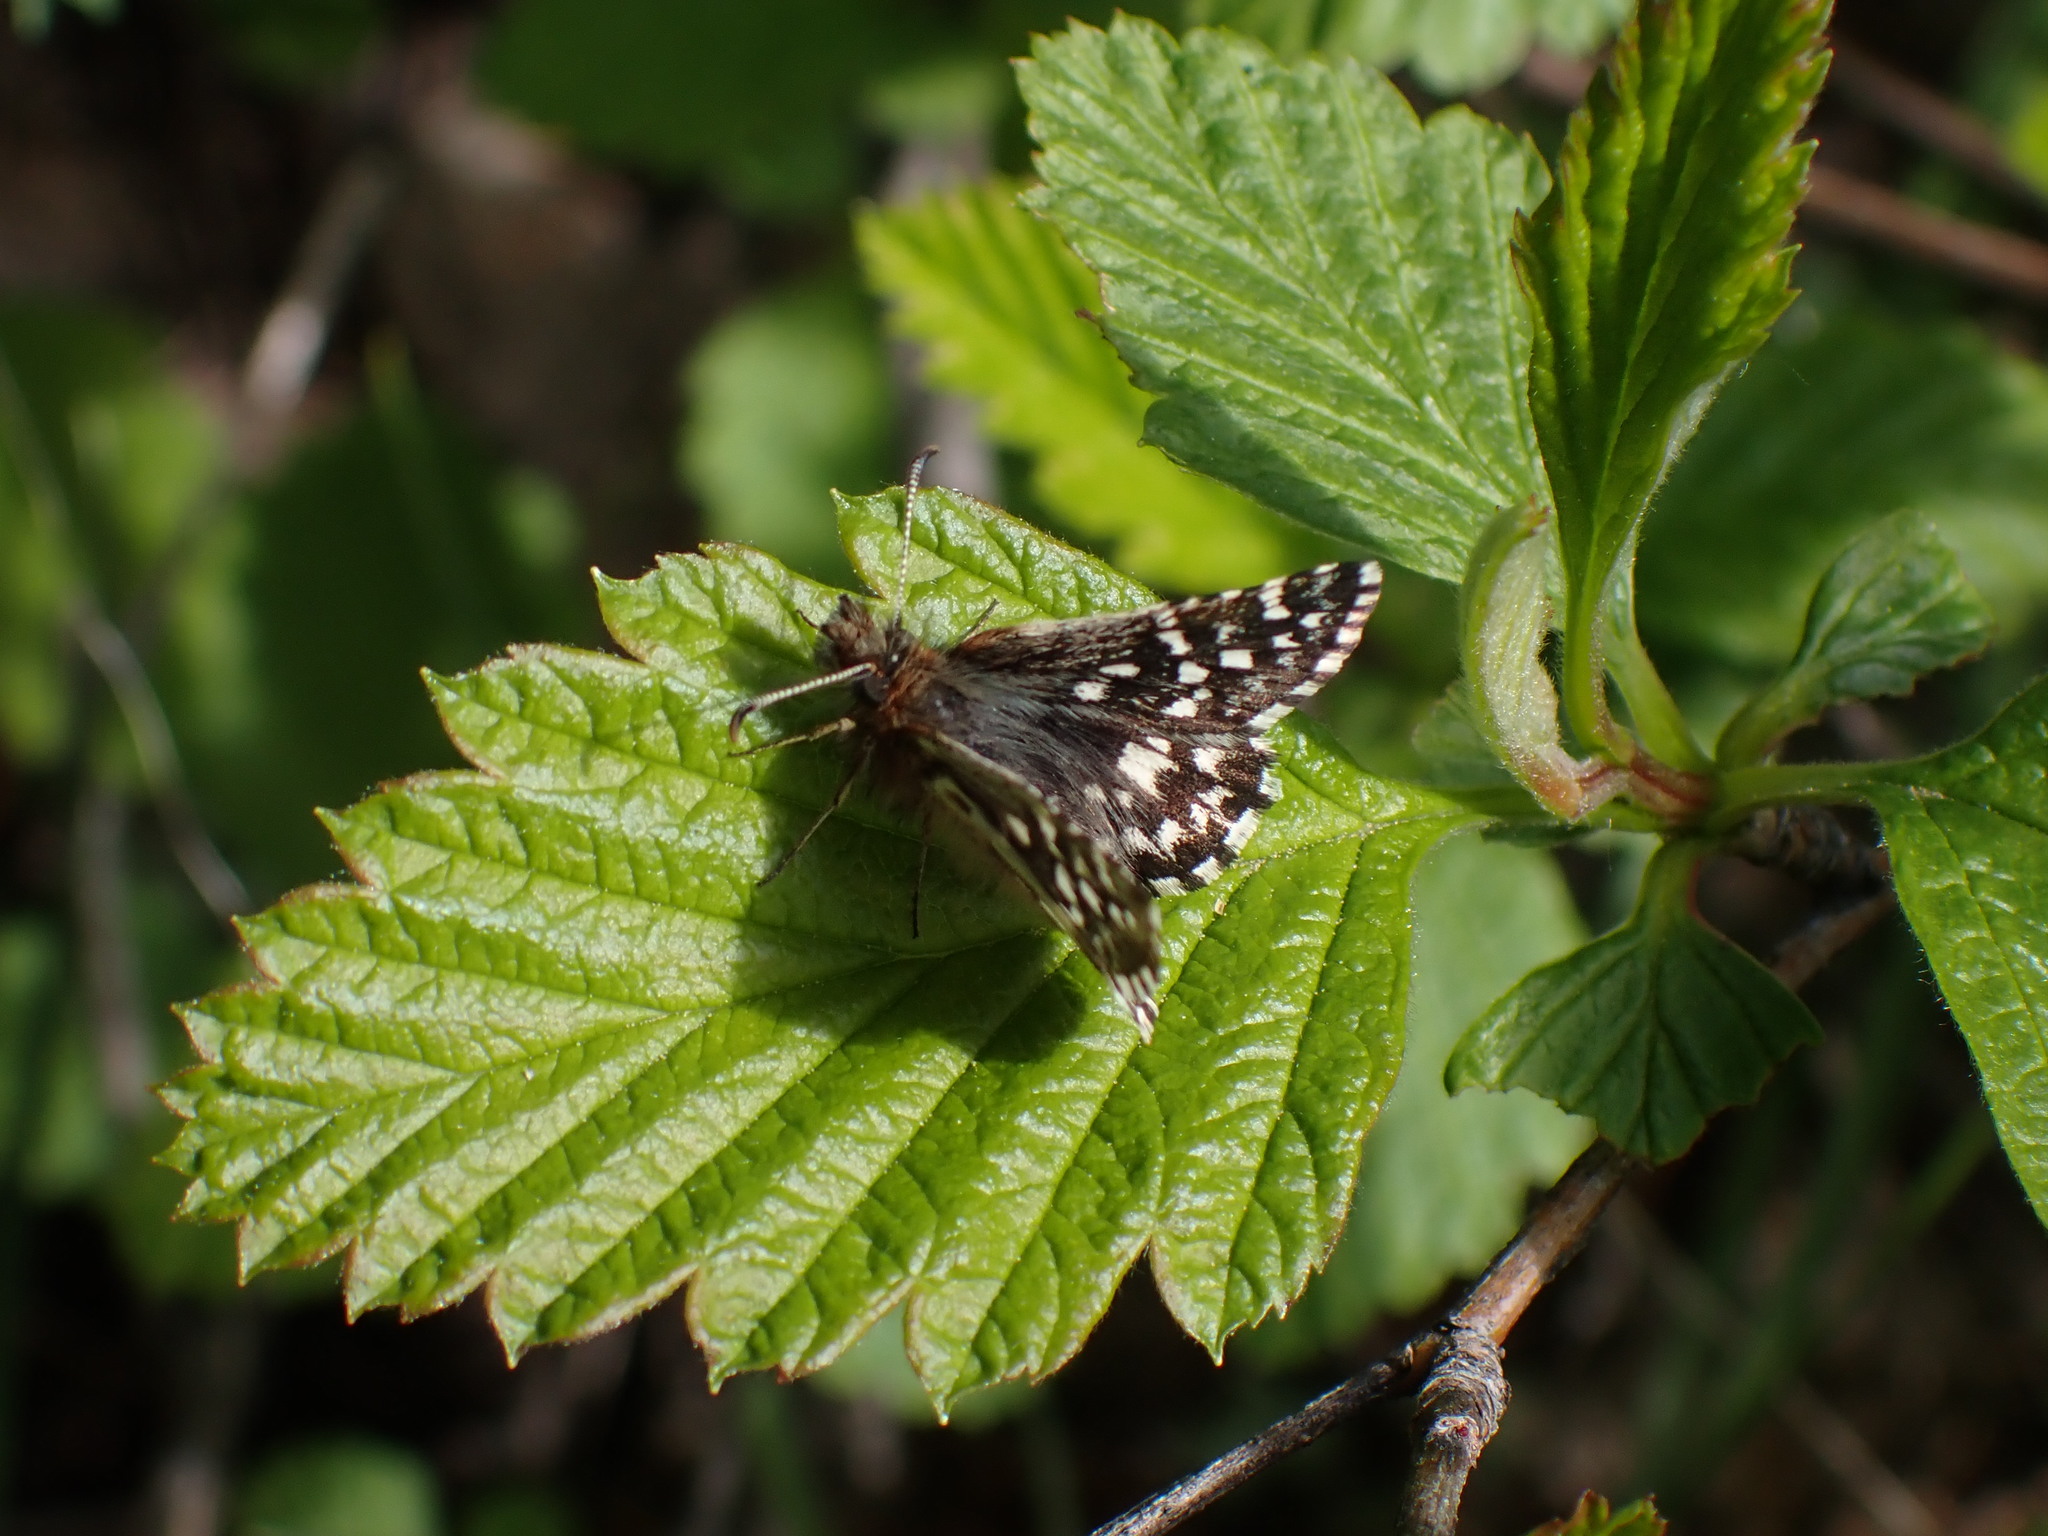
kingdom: Animalia
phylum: Arthropoda
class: Insecta
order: Lepidoptera
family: Hesperiidae
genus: Pyrgus
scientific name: Pyrgus ruralis
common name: Two-banded checkered-skipper
